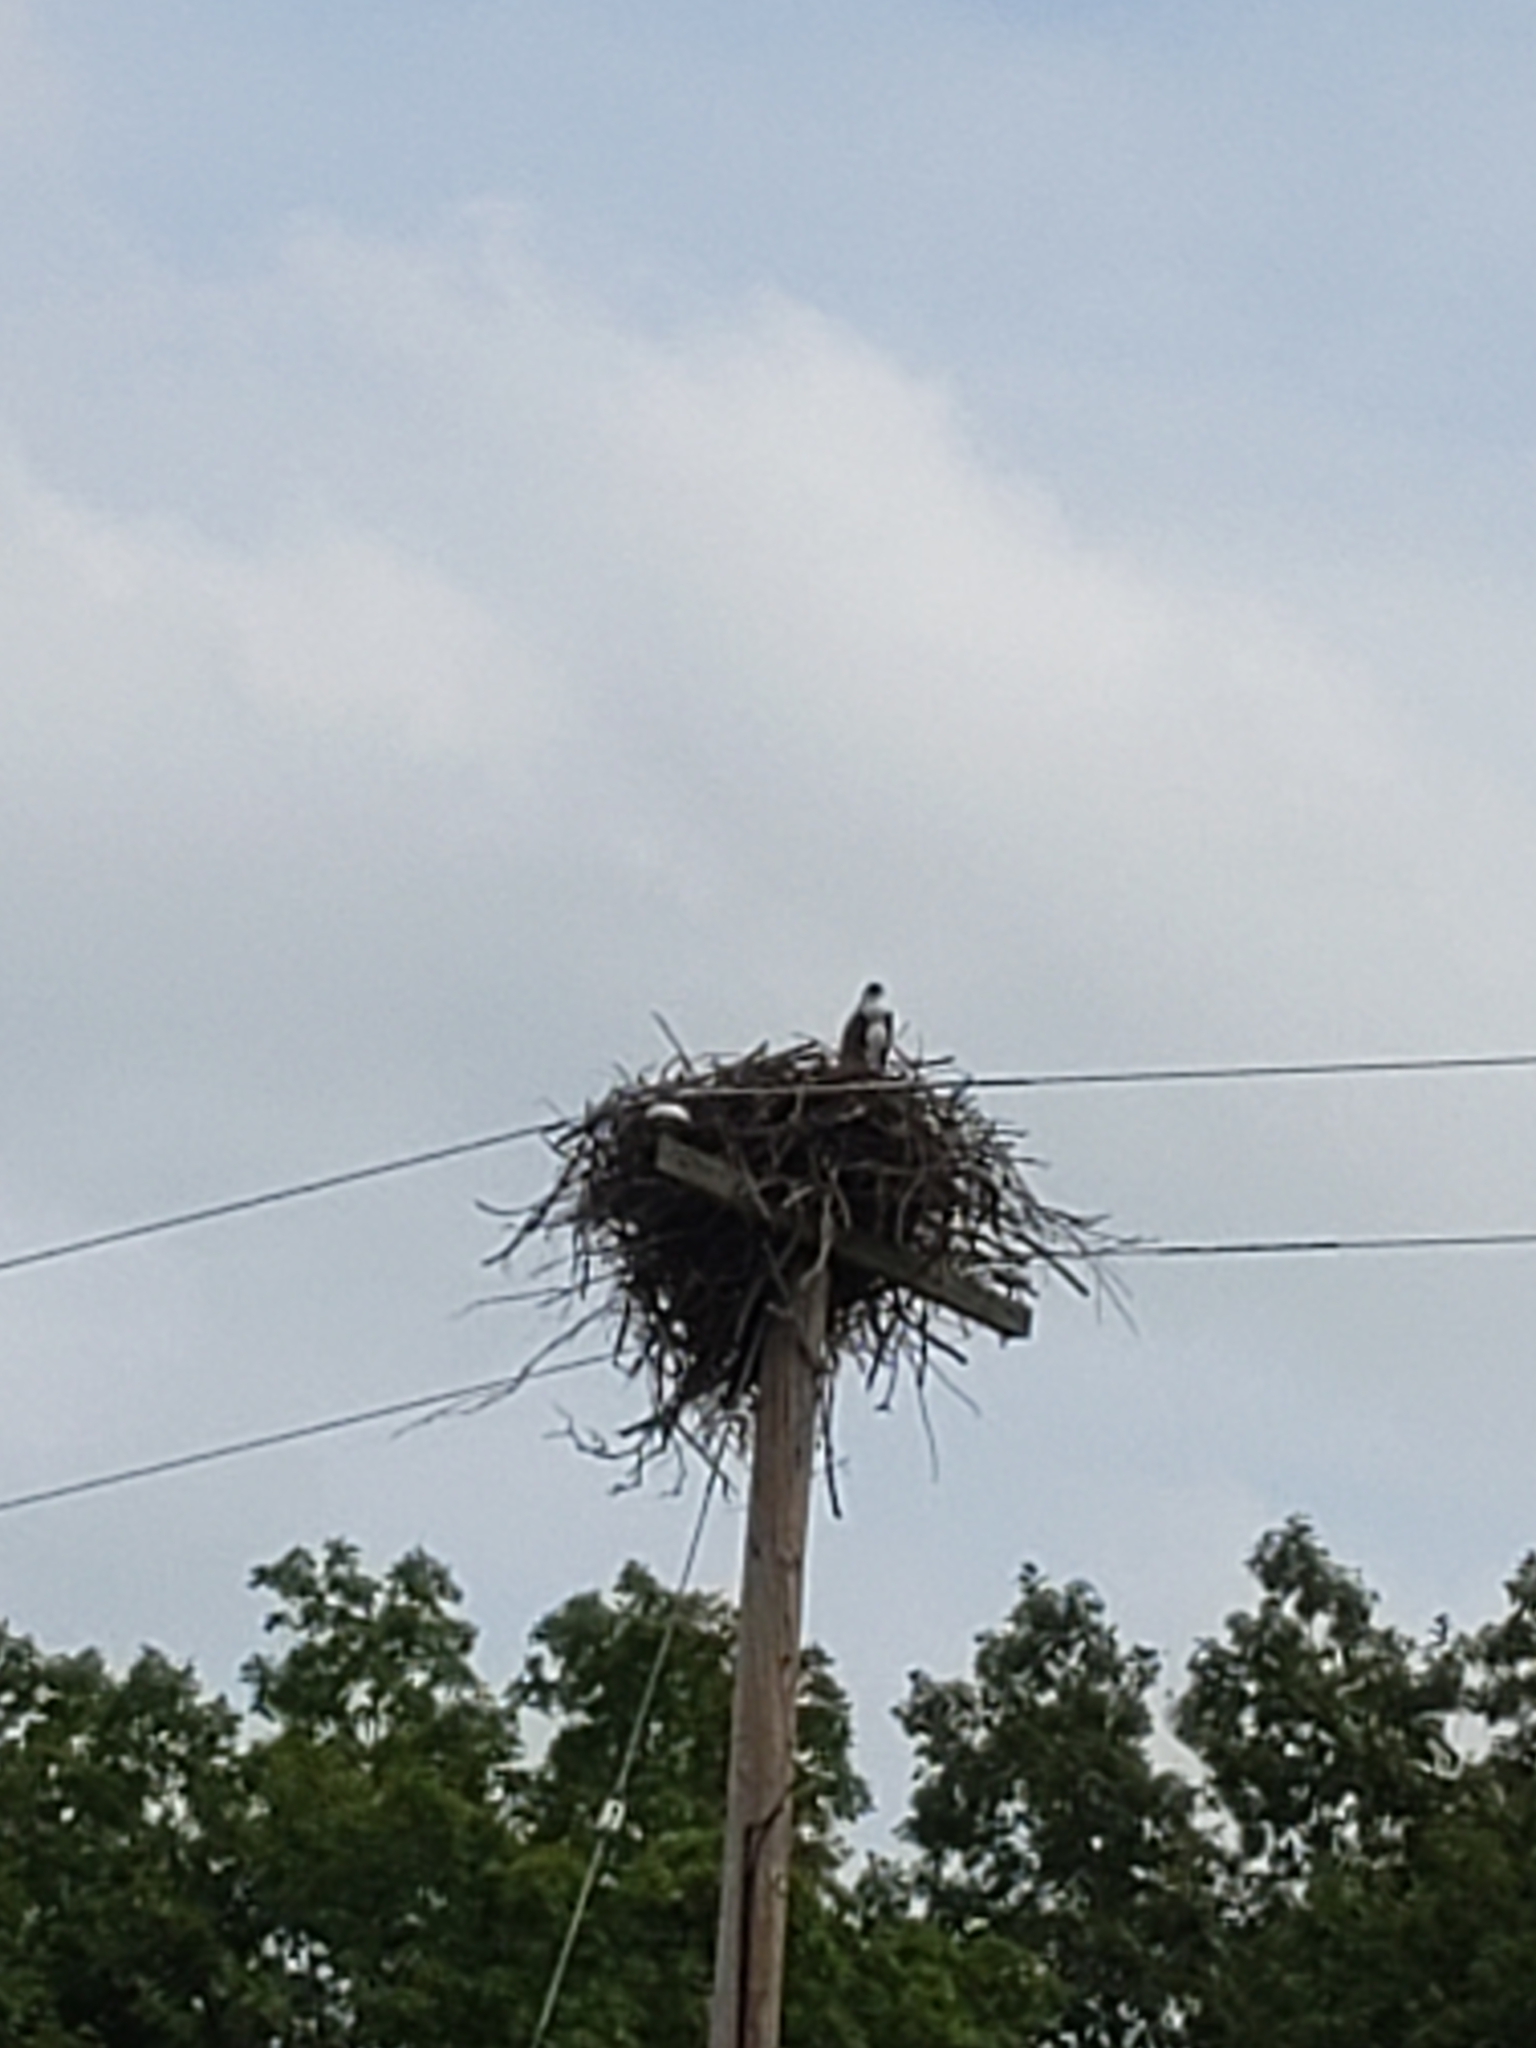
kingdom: Animalia
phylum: Chordata
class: Aves
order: Accipitriformes
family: Pandionidae
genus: Pandion
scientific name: Pandion haliaetus
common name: Osprey
